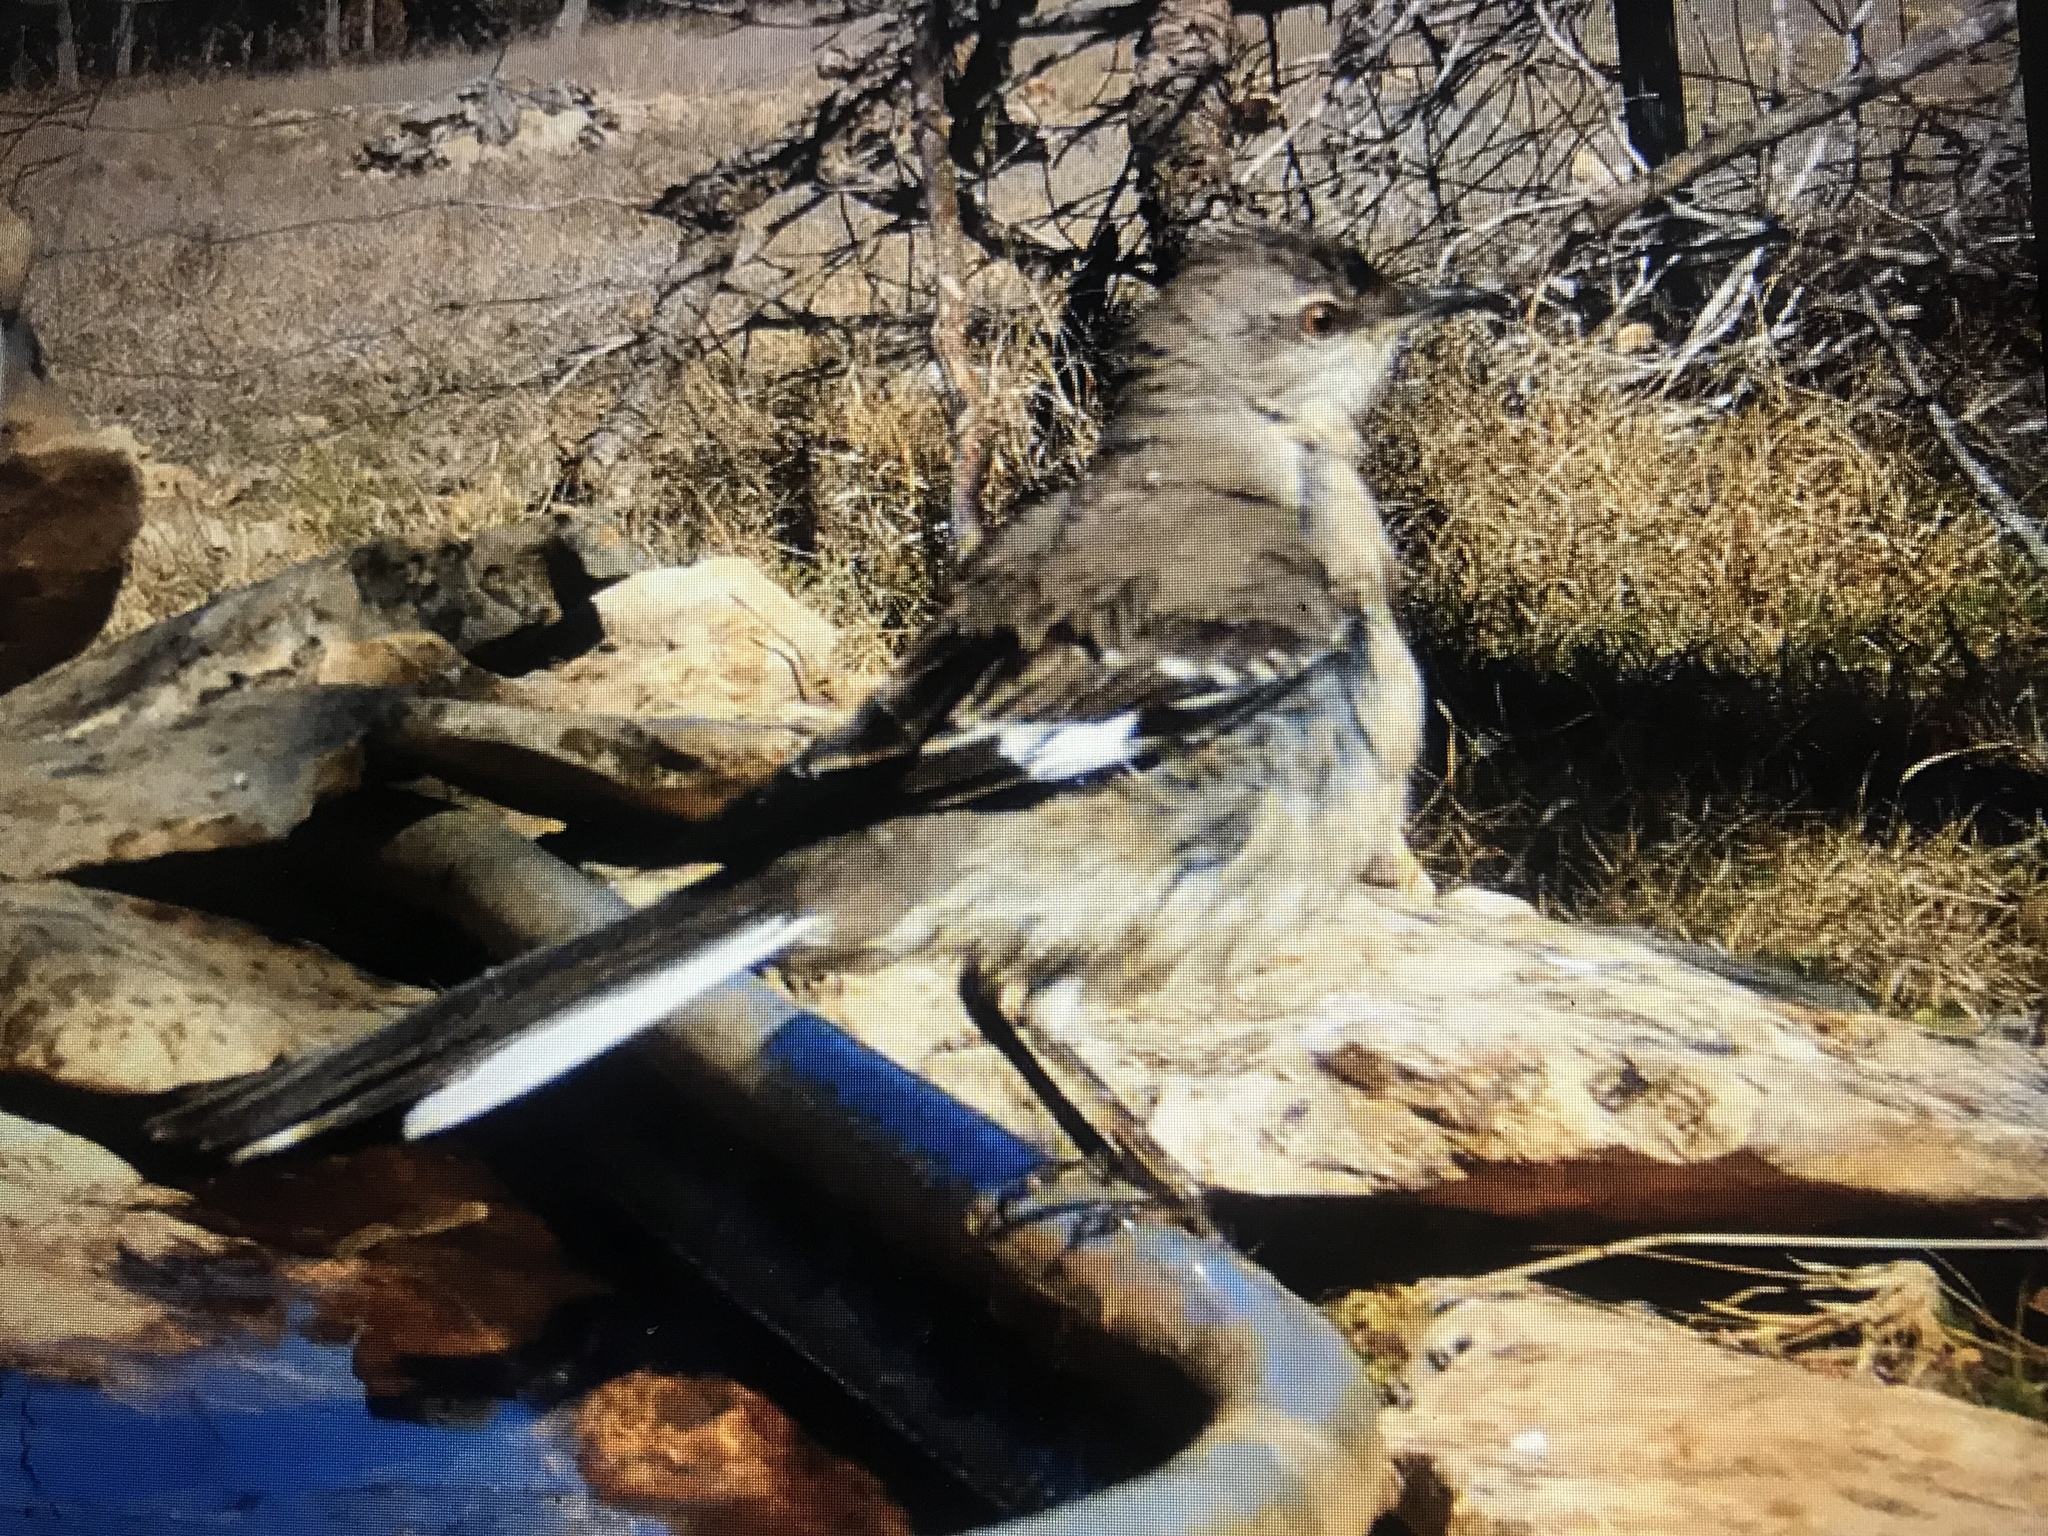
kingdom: Animalia
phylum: Chordata
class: Aves
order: Passeriformes
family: Mimidae
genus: Mimus
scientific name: Mimus polyglottos
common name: Northern mockingbird
